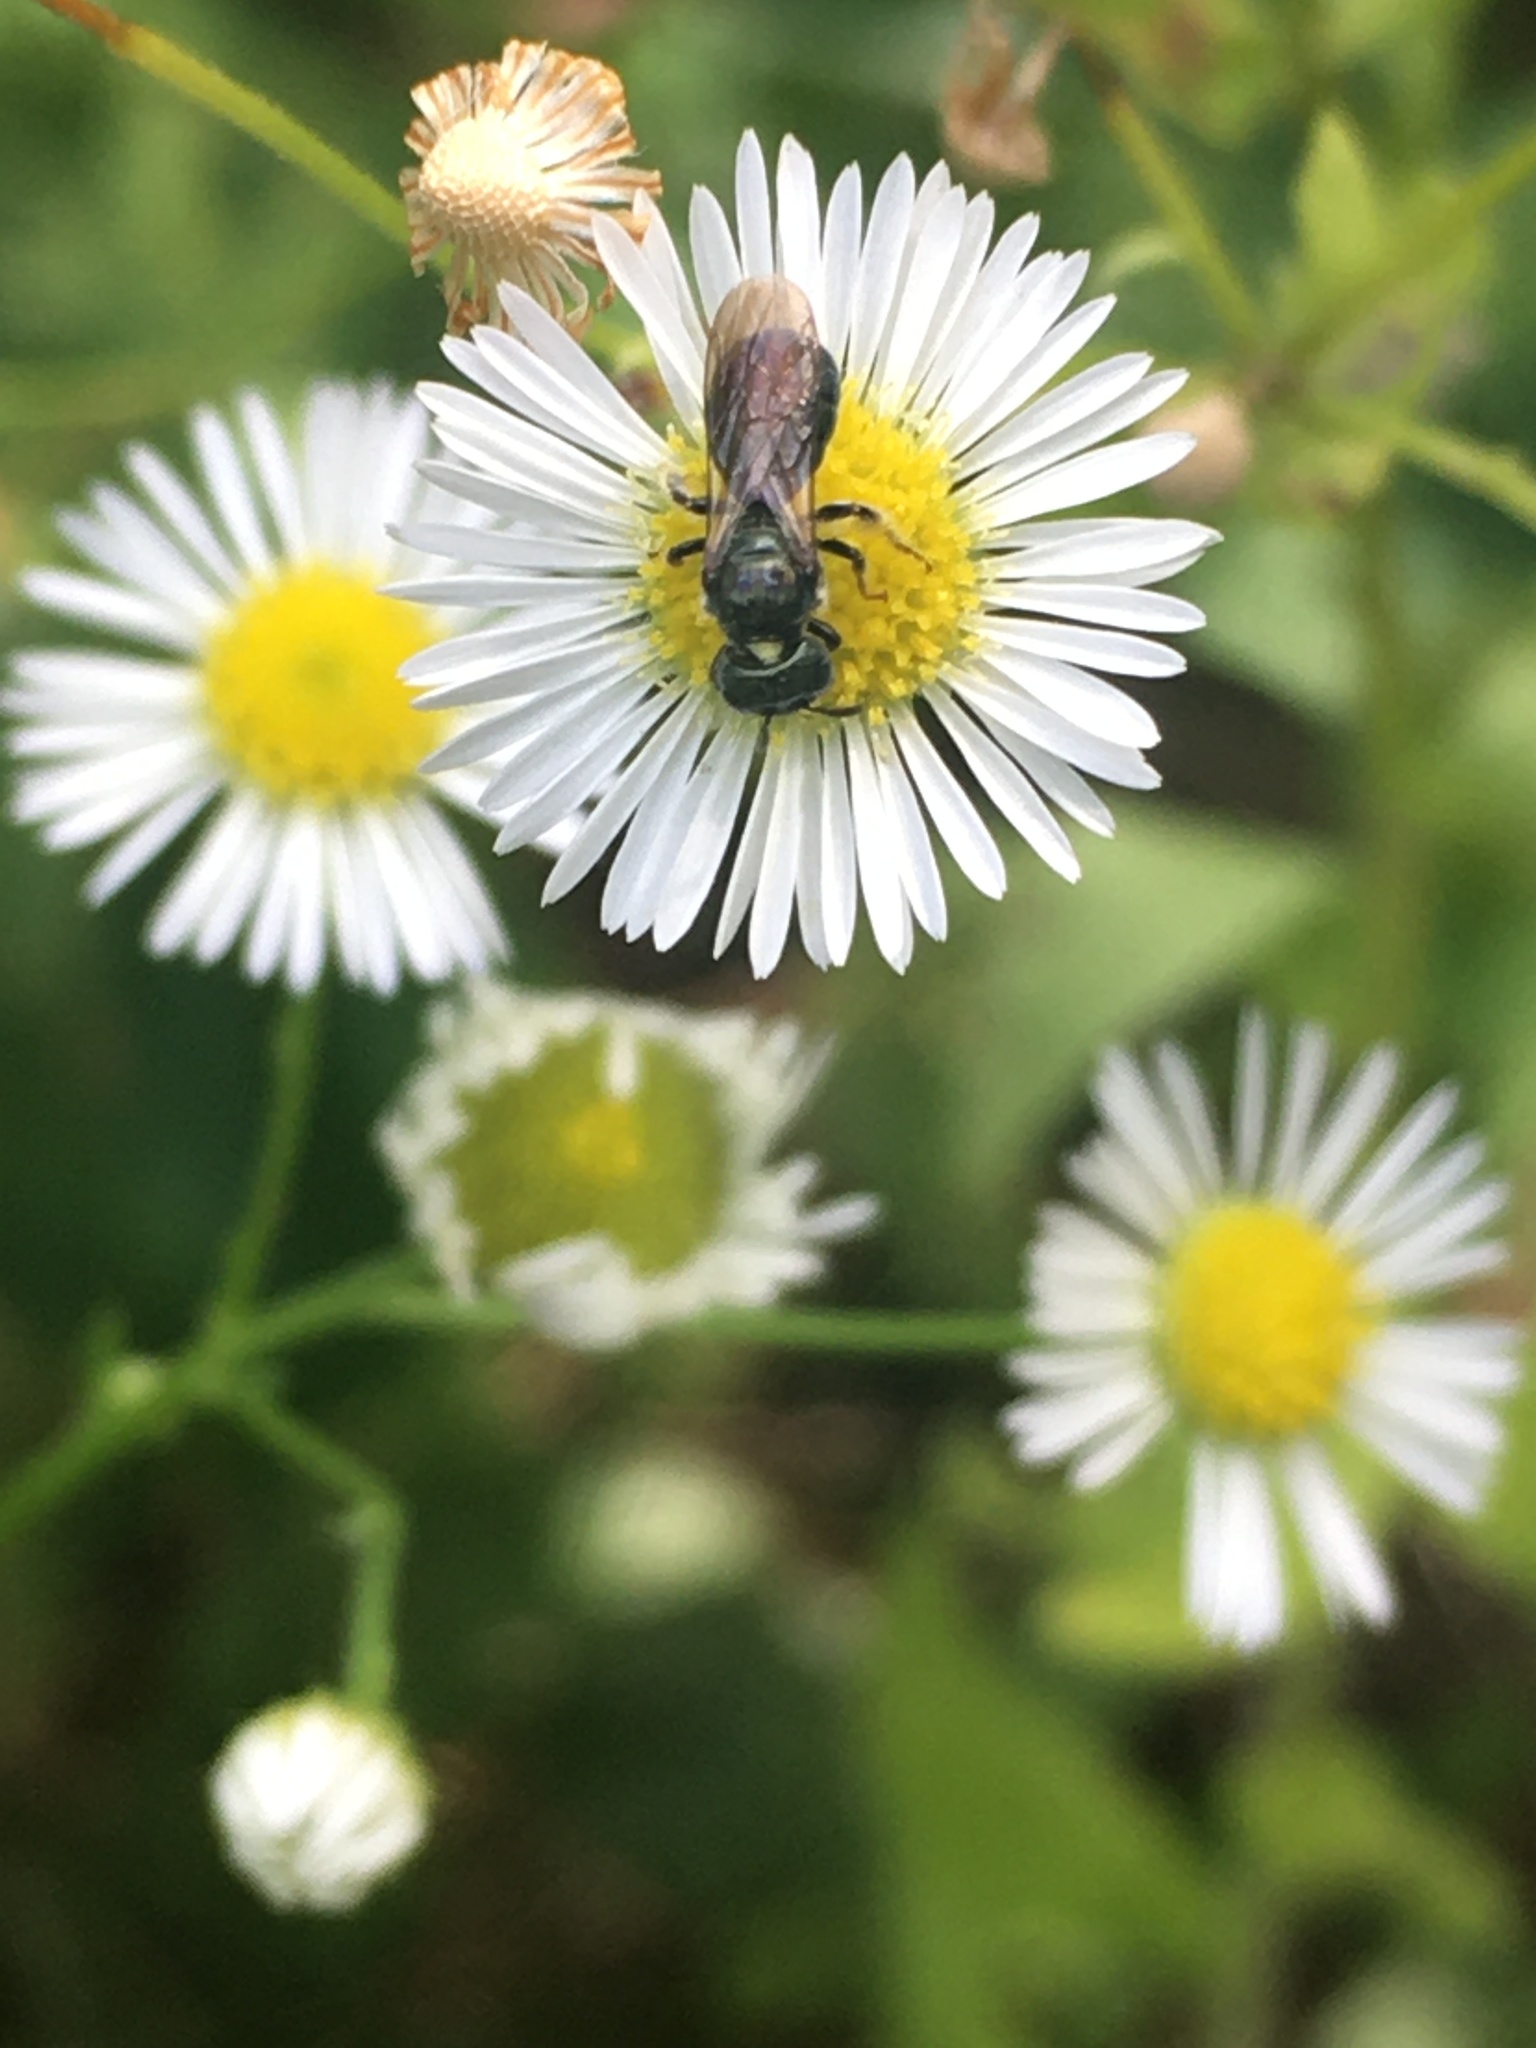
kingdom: Animalia
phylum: Arthropoda
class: Insecta
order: Hymenoptera
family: Apidae
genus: Zadontomerus
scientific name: Zadontomerus
